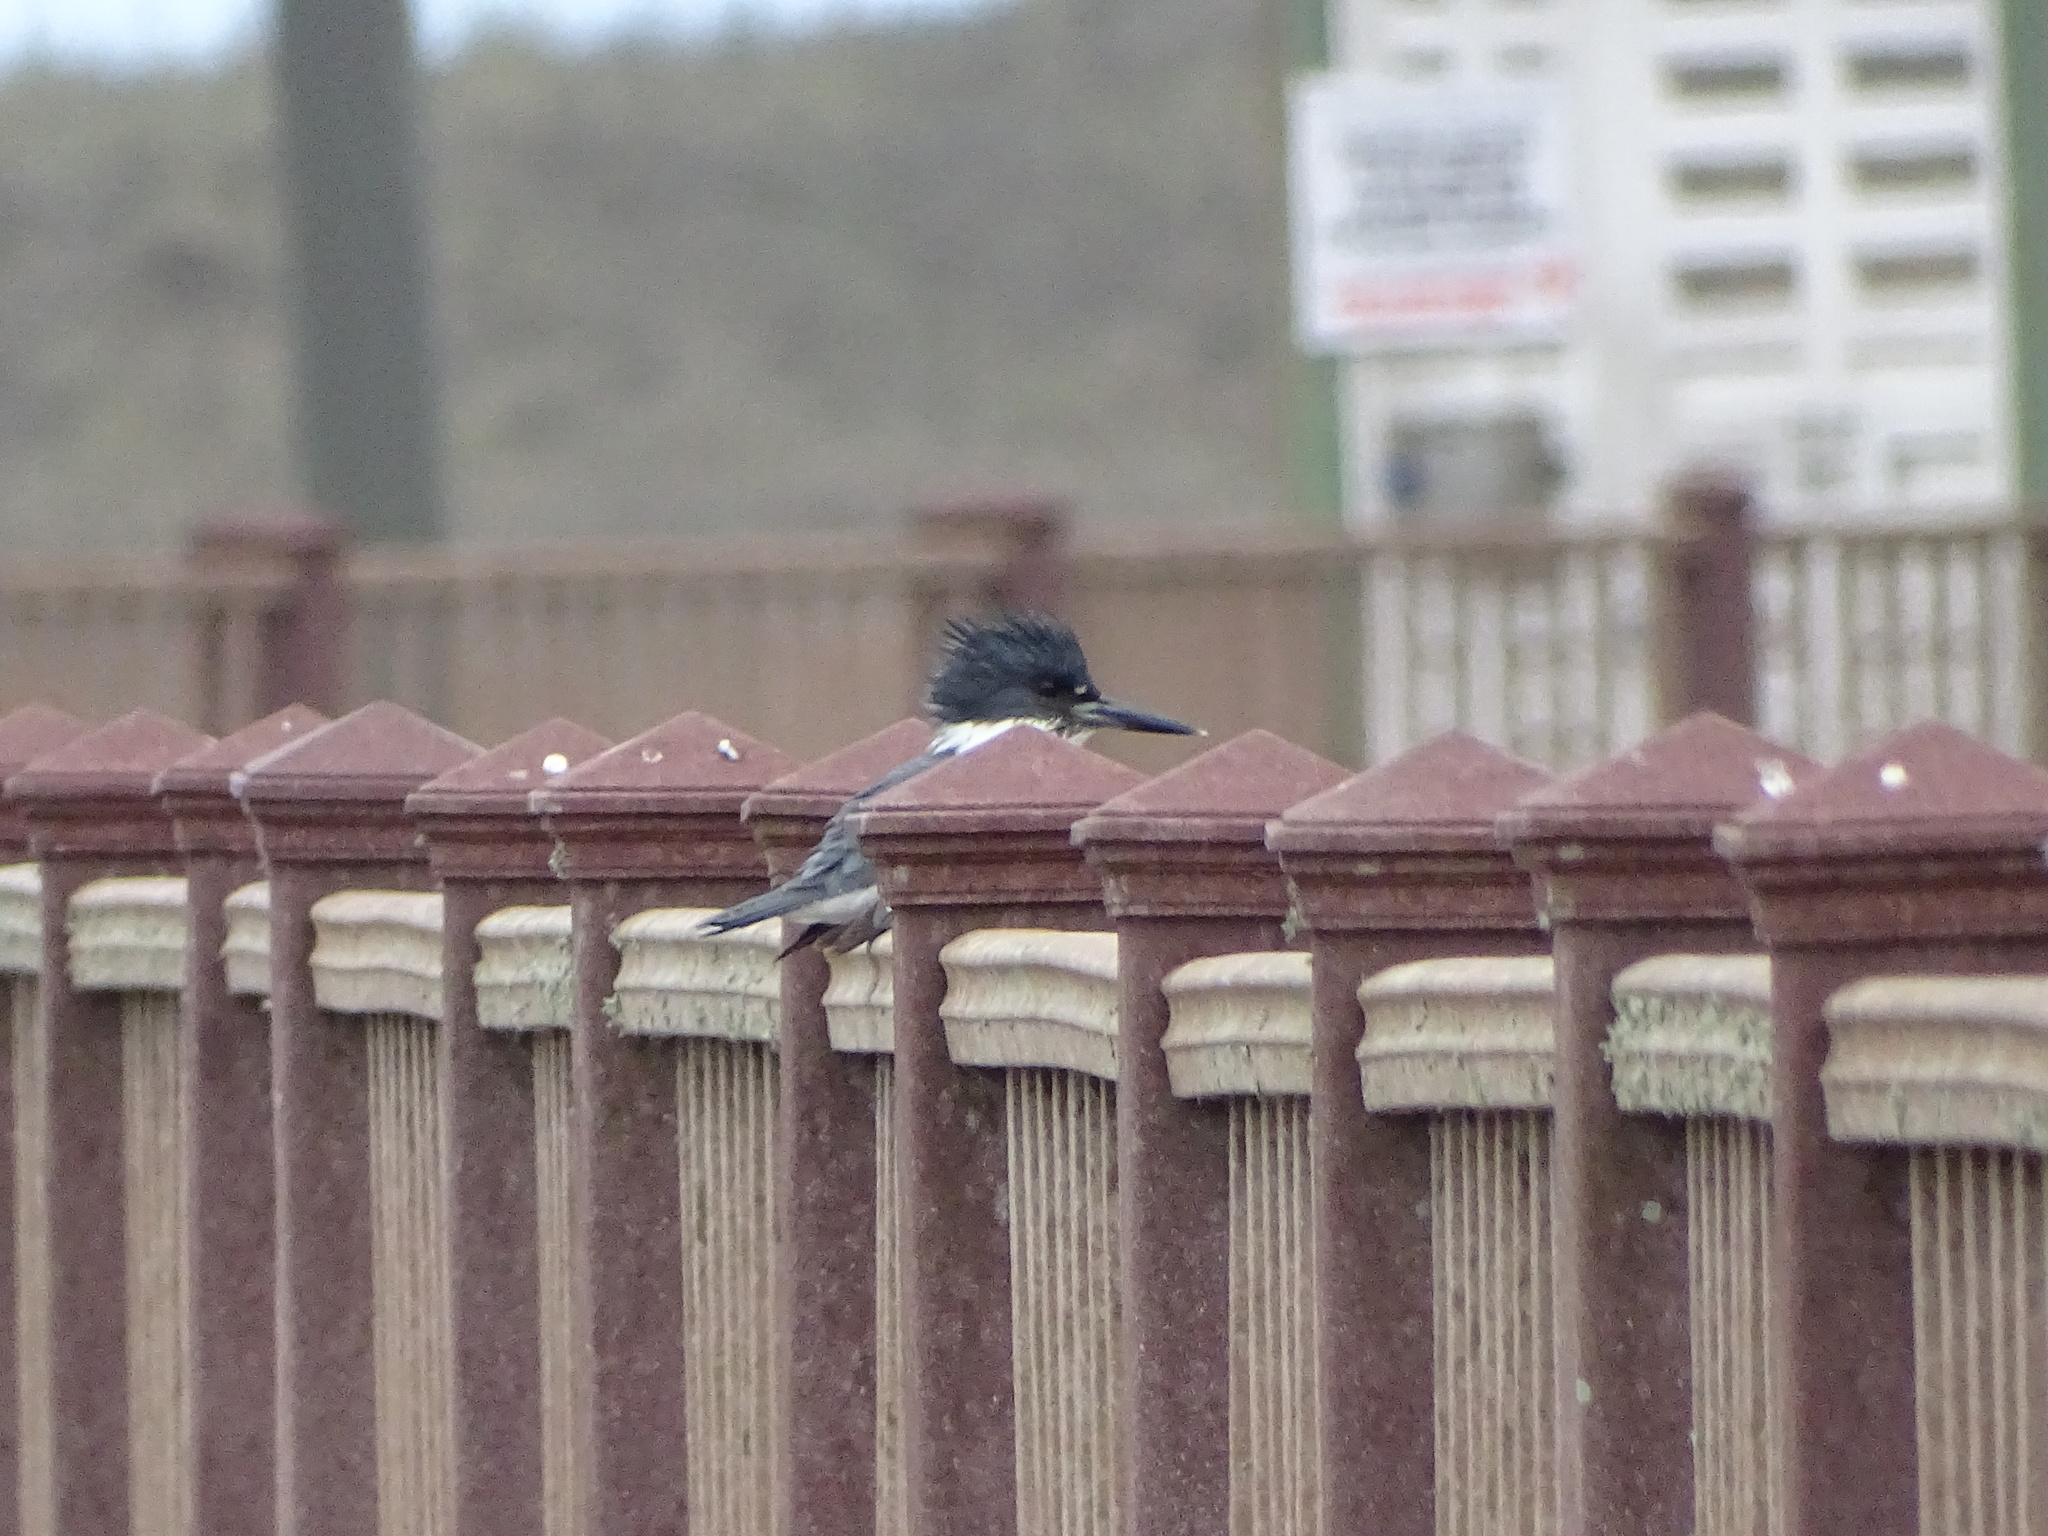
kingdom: Animalia
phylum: Chordata
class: Aves
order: Coraciiformes
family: Alcedinidae
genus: Megaceryle
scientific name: Megaceryle alcyon
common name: Belted kingfisher
